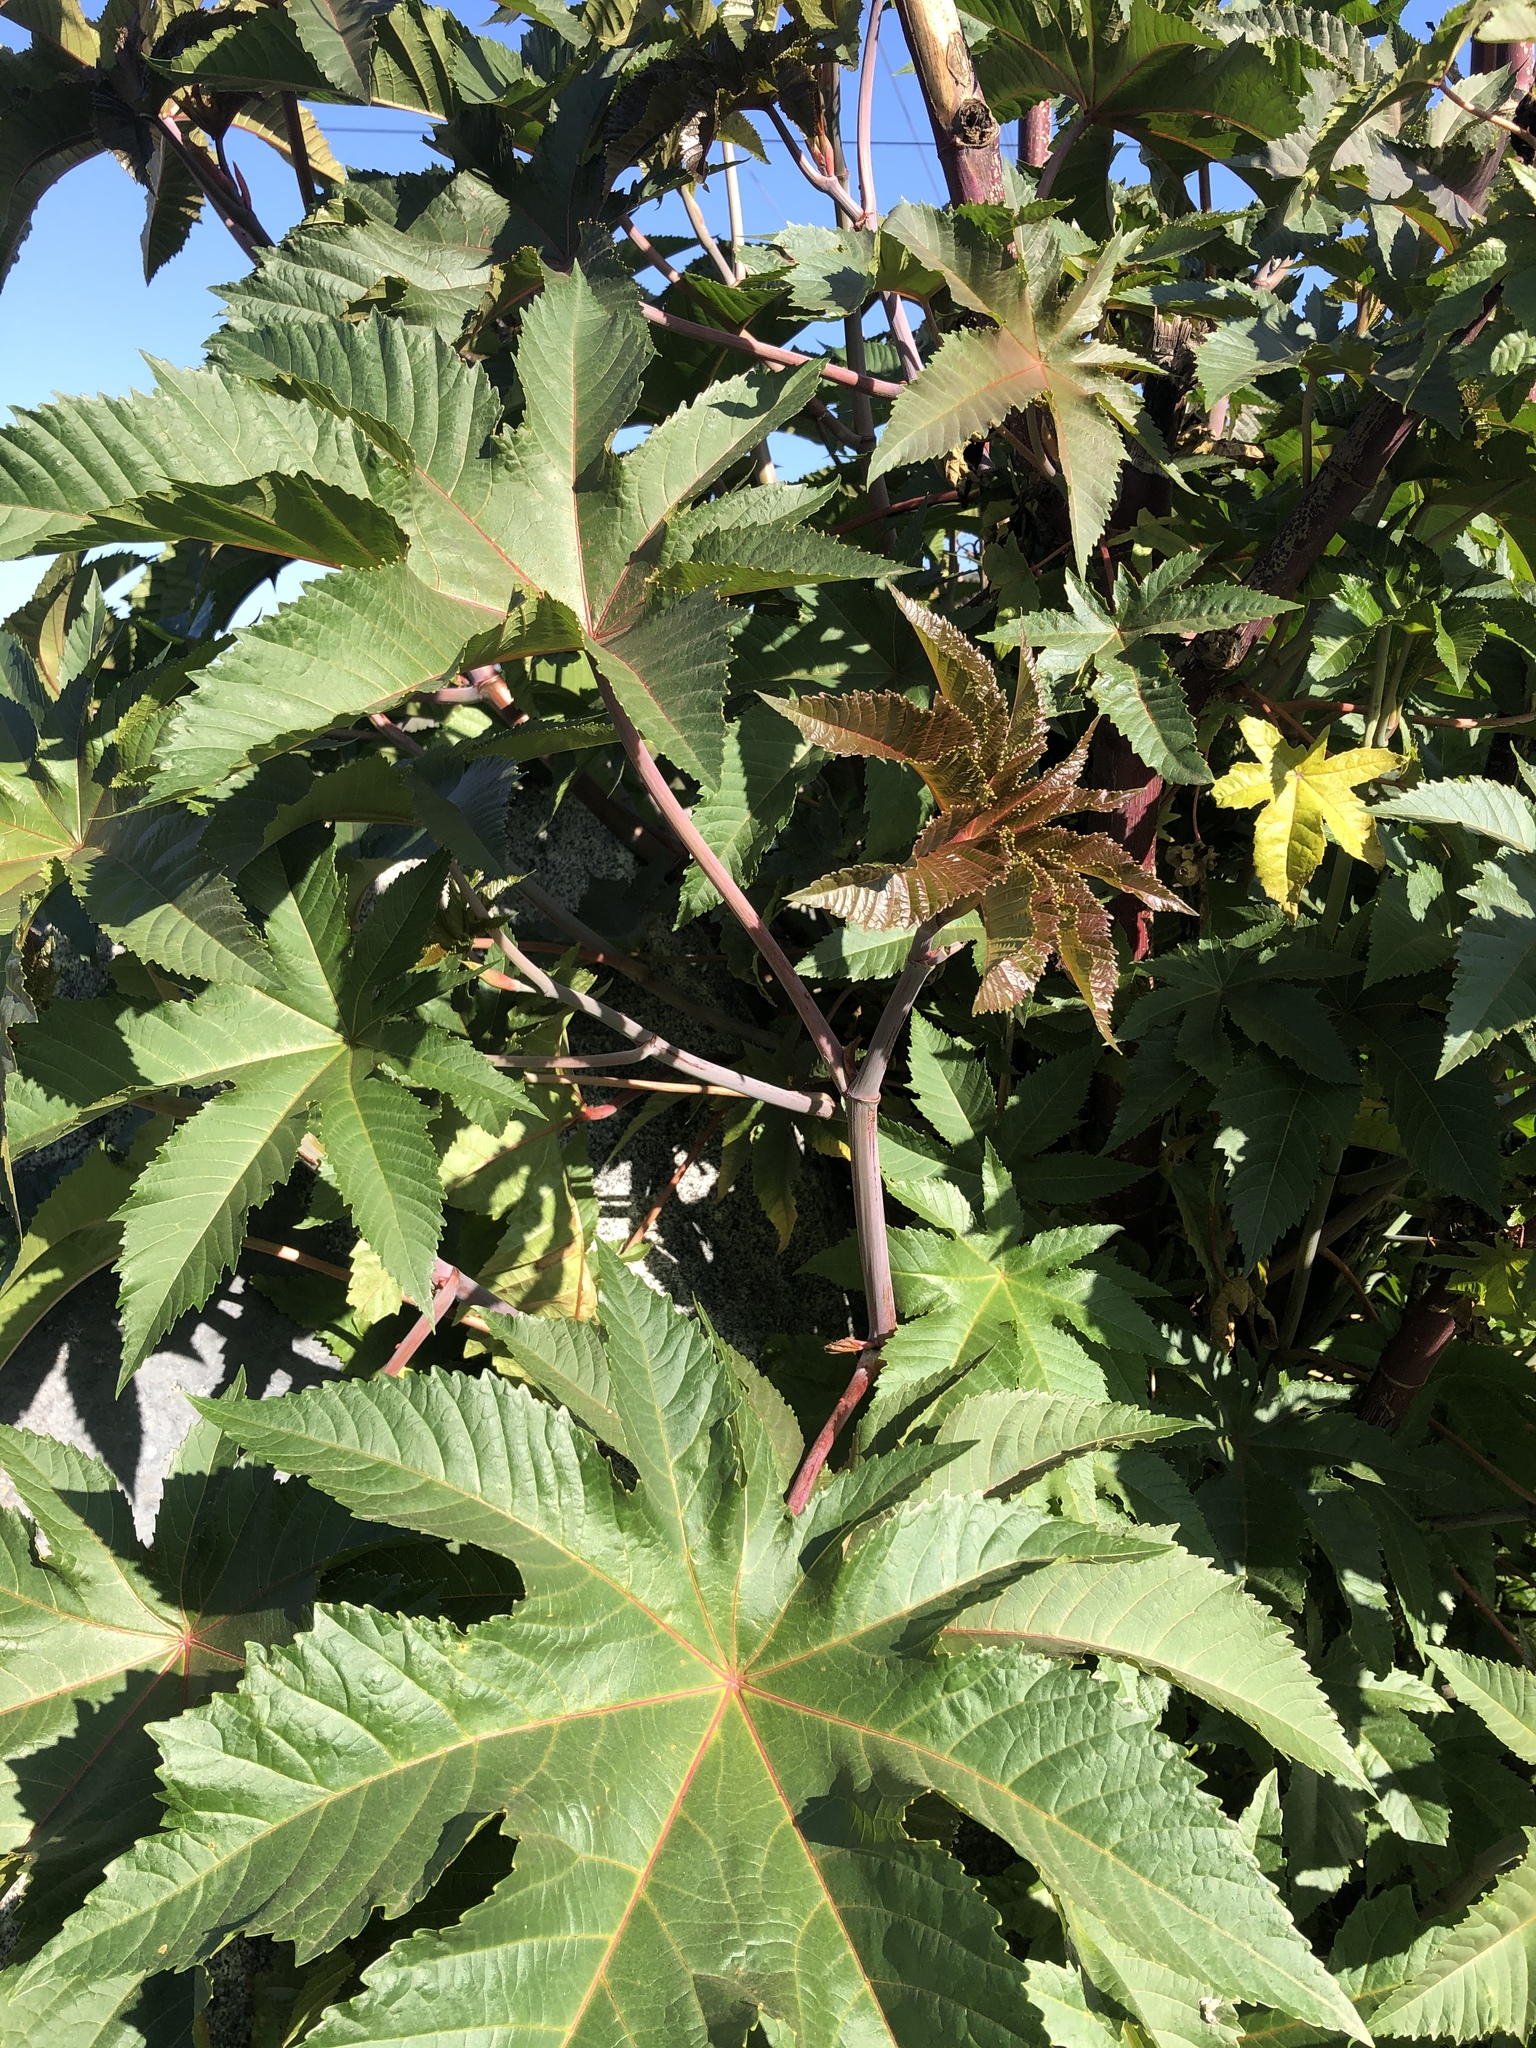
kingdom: Plantae
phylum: Tracheophyta
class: Magnoliopsida
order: Malpighiales
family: Euphorbiaceae
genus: Ricinus
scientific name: Ricinus communis
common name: Castor-oil-plant
